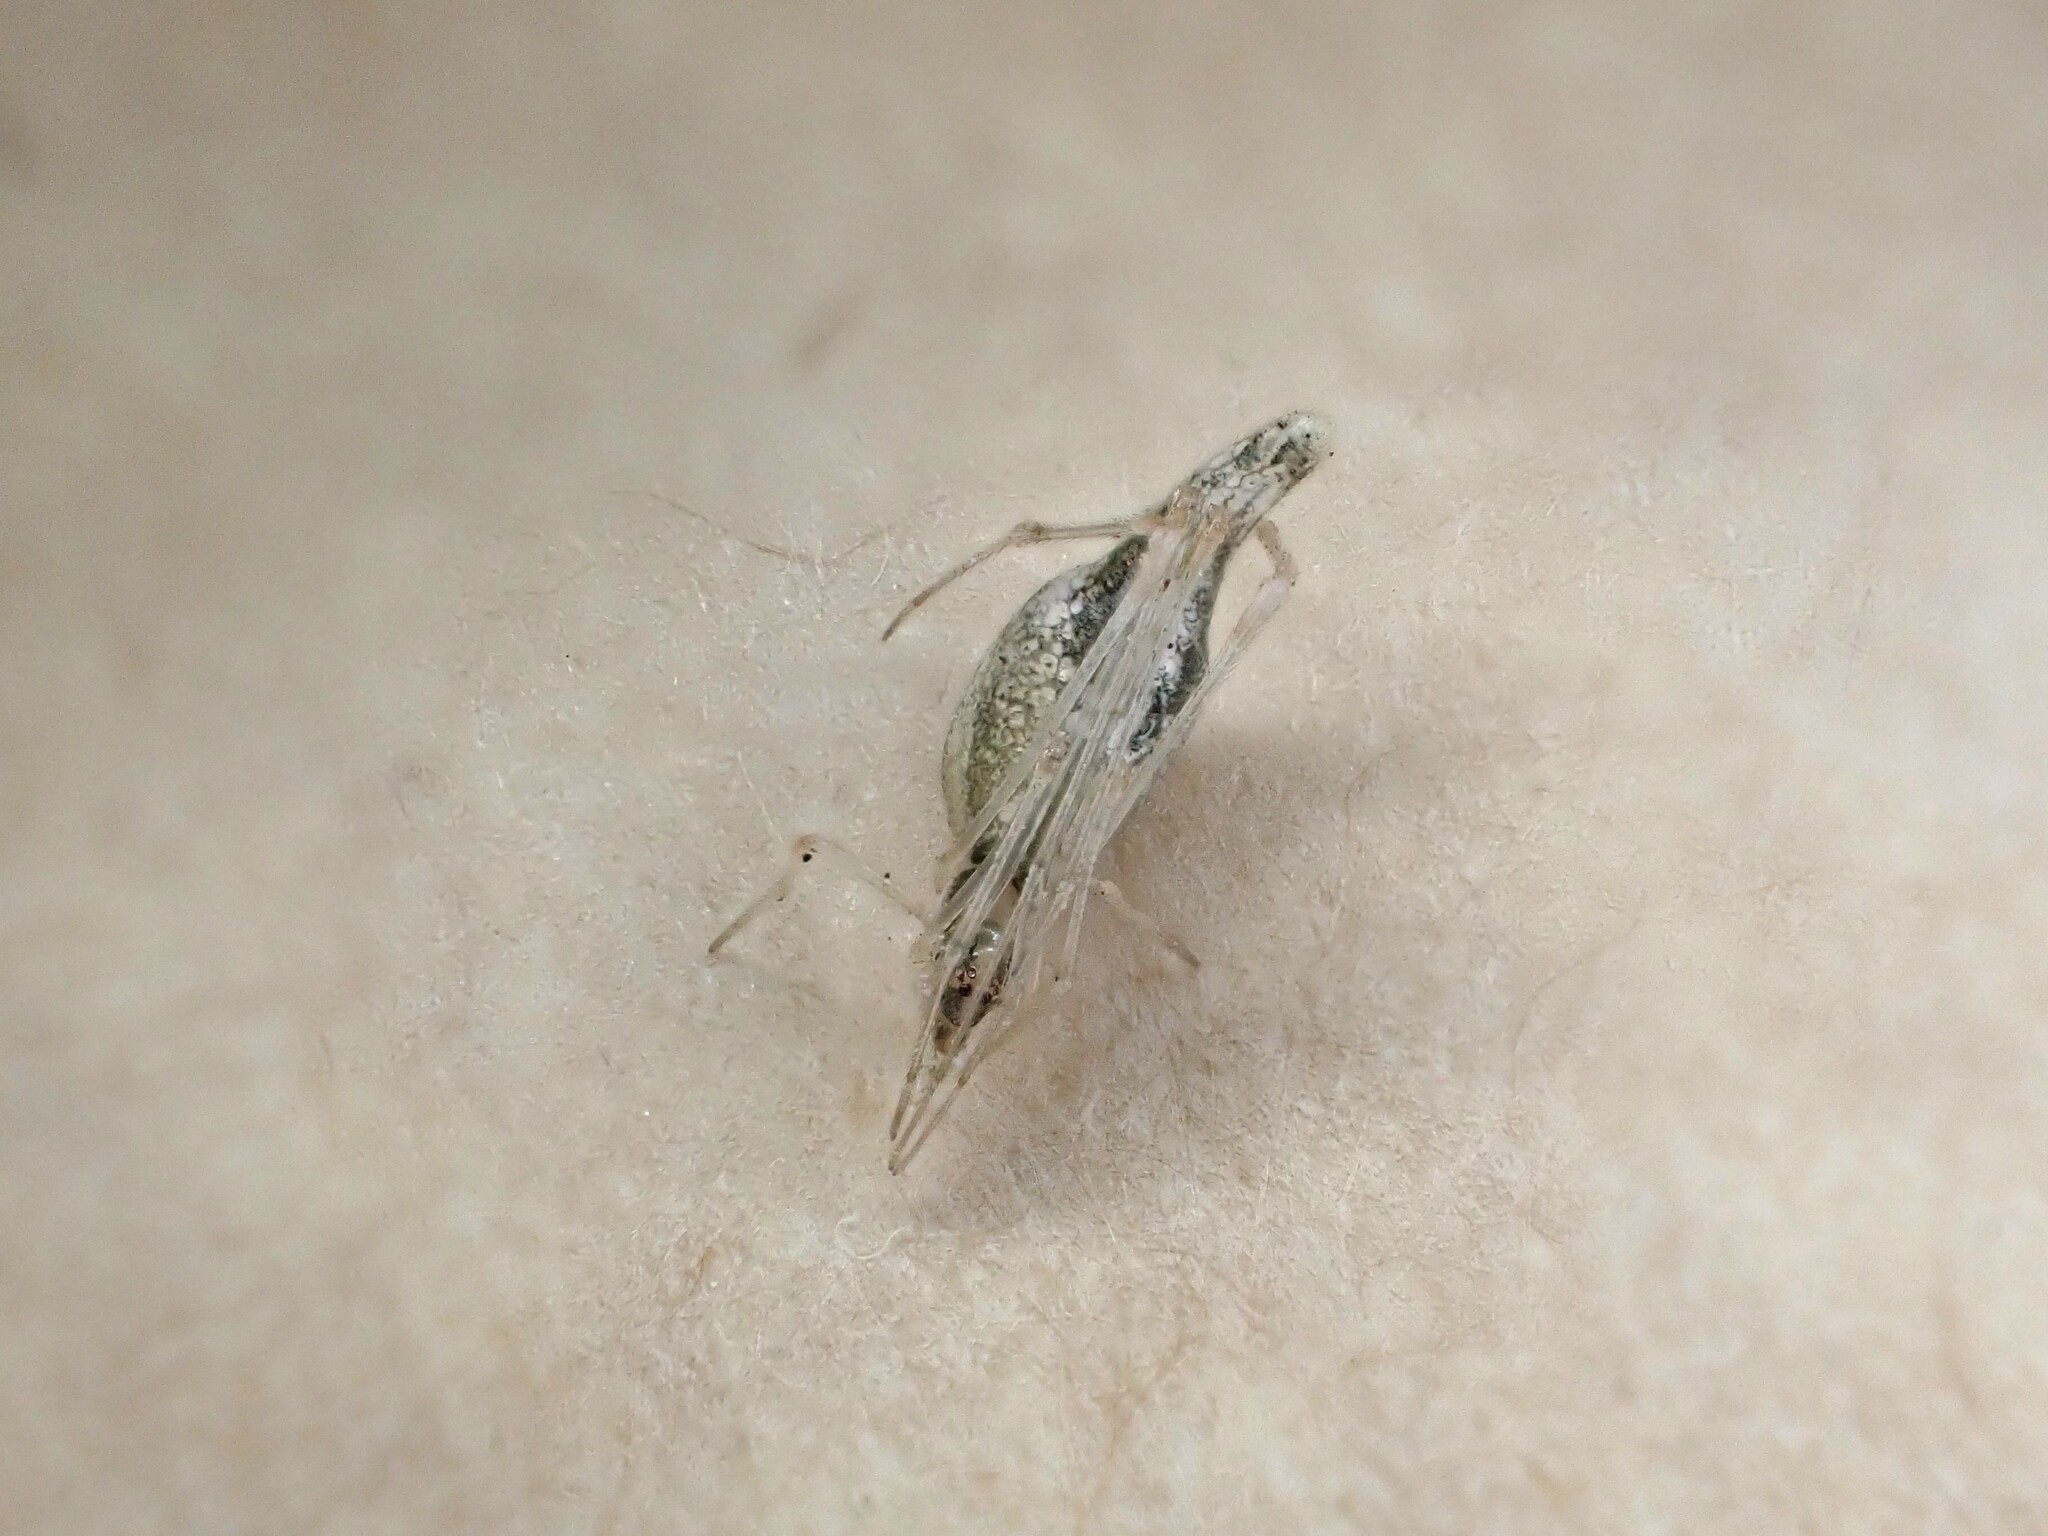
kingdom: Animalia
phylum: Arthropoda
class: Arachnida
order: Araneae
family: Theridiidae
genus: Rhomphaea
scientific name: Rhomphaea urquharti
